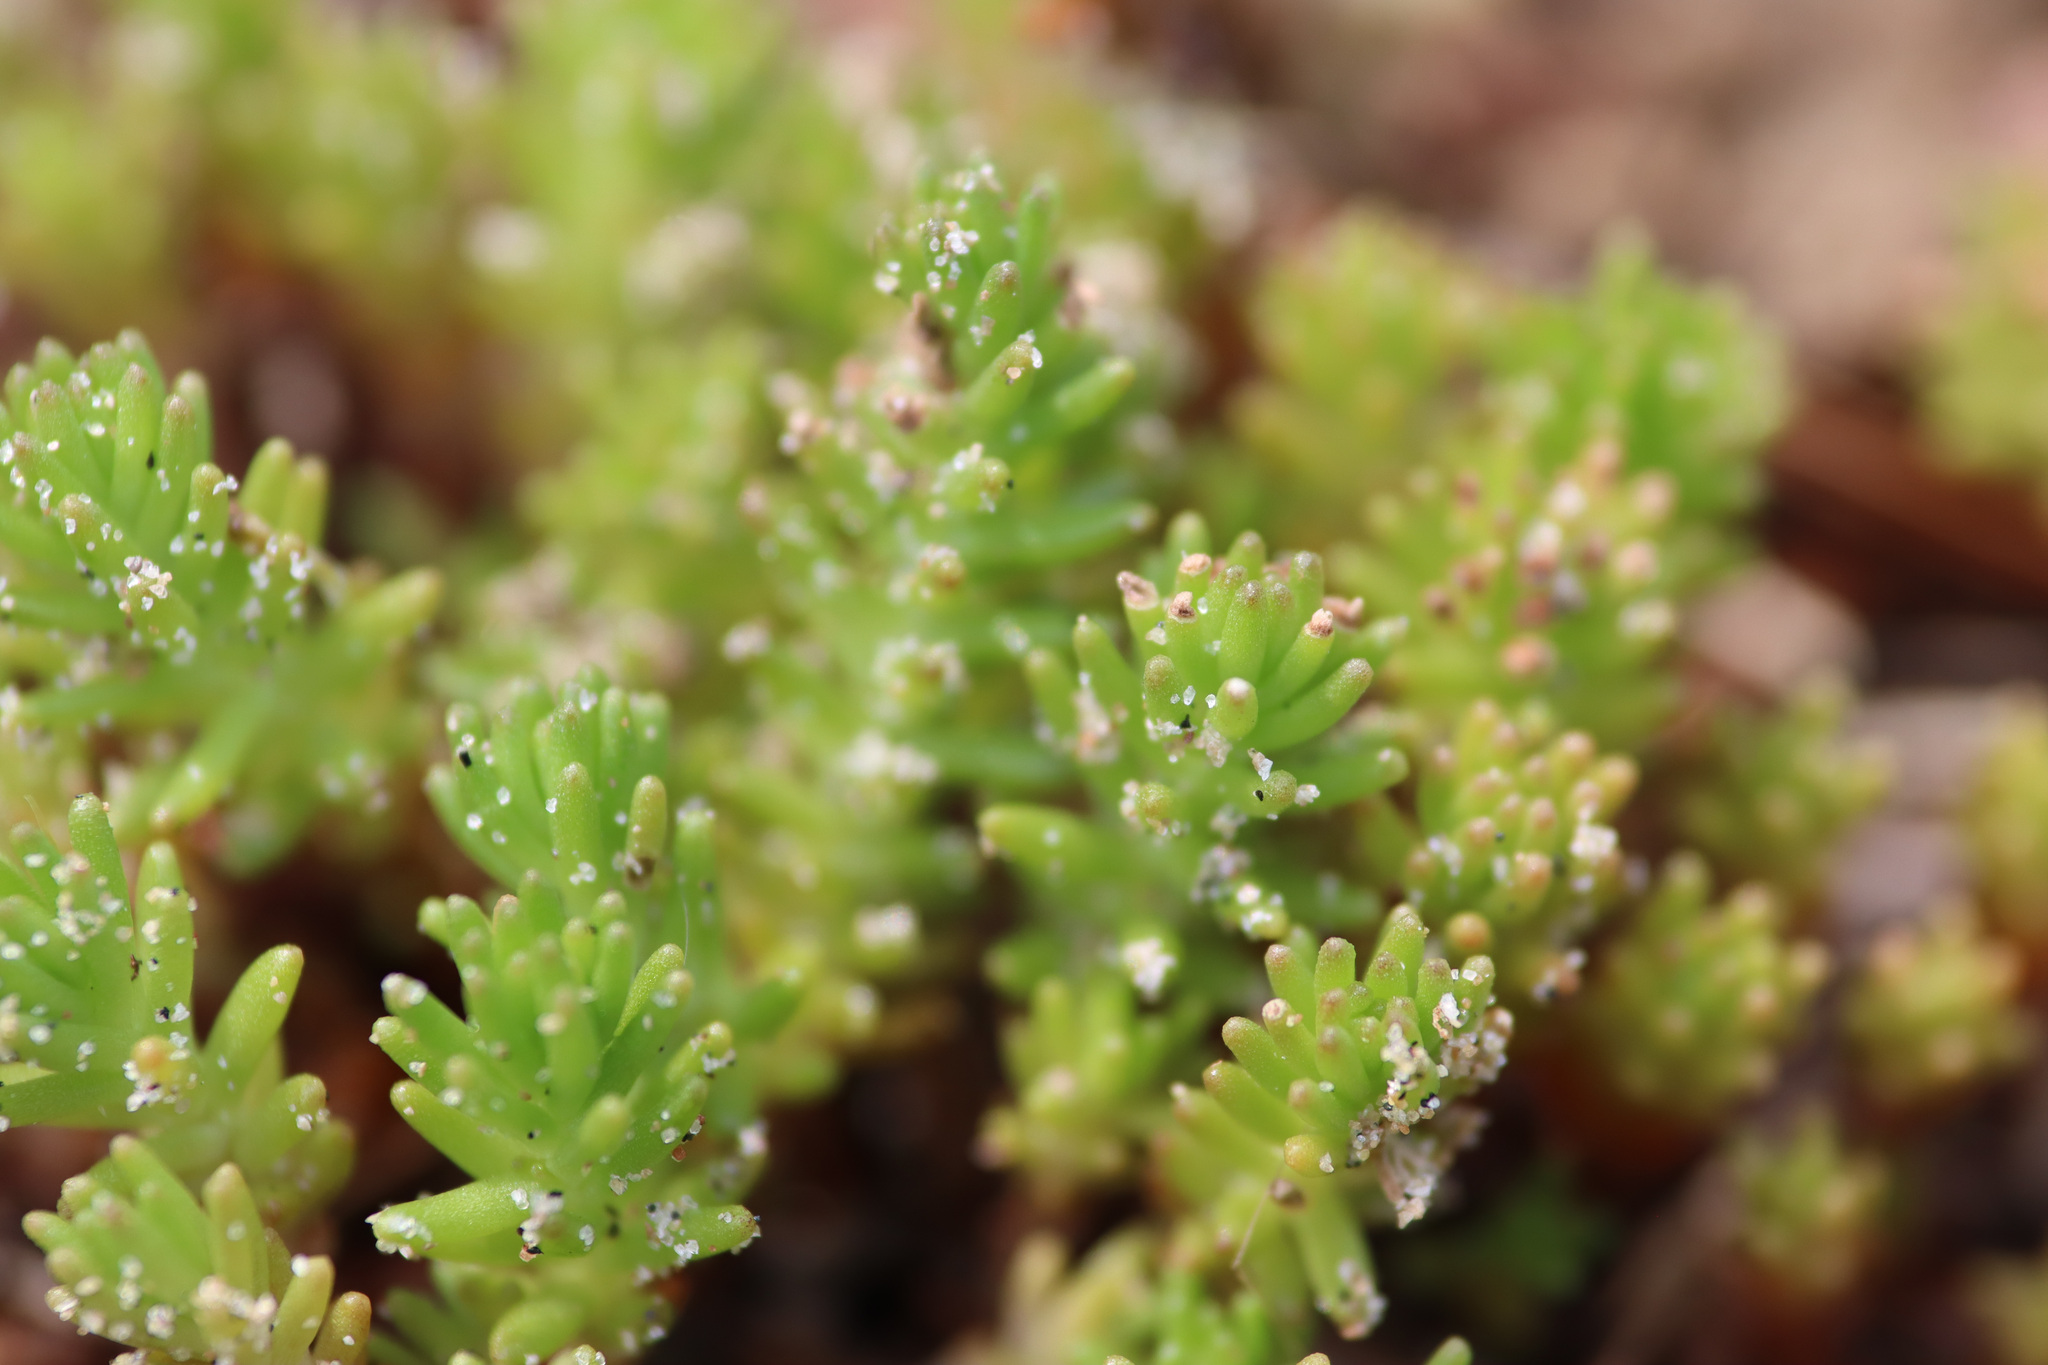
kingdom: Plantae
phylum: Tracheophyta
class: Magnoliopsida
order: Saxifragales
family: Crassulaceae
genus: Sedum
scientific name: Sedum sexangulare
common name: Tasteless stonecrop
